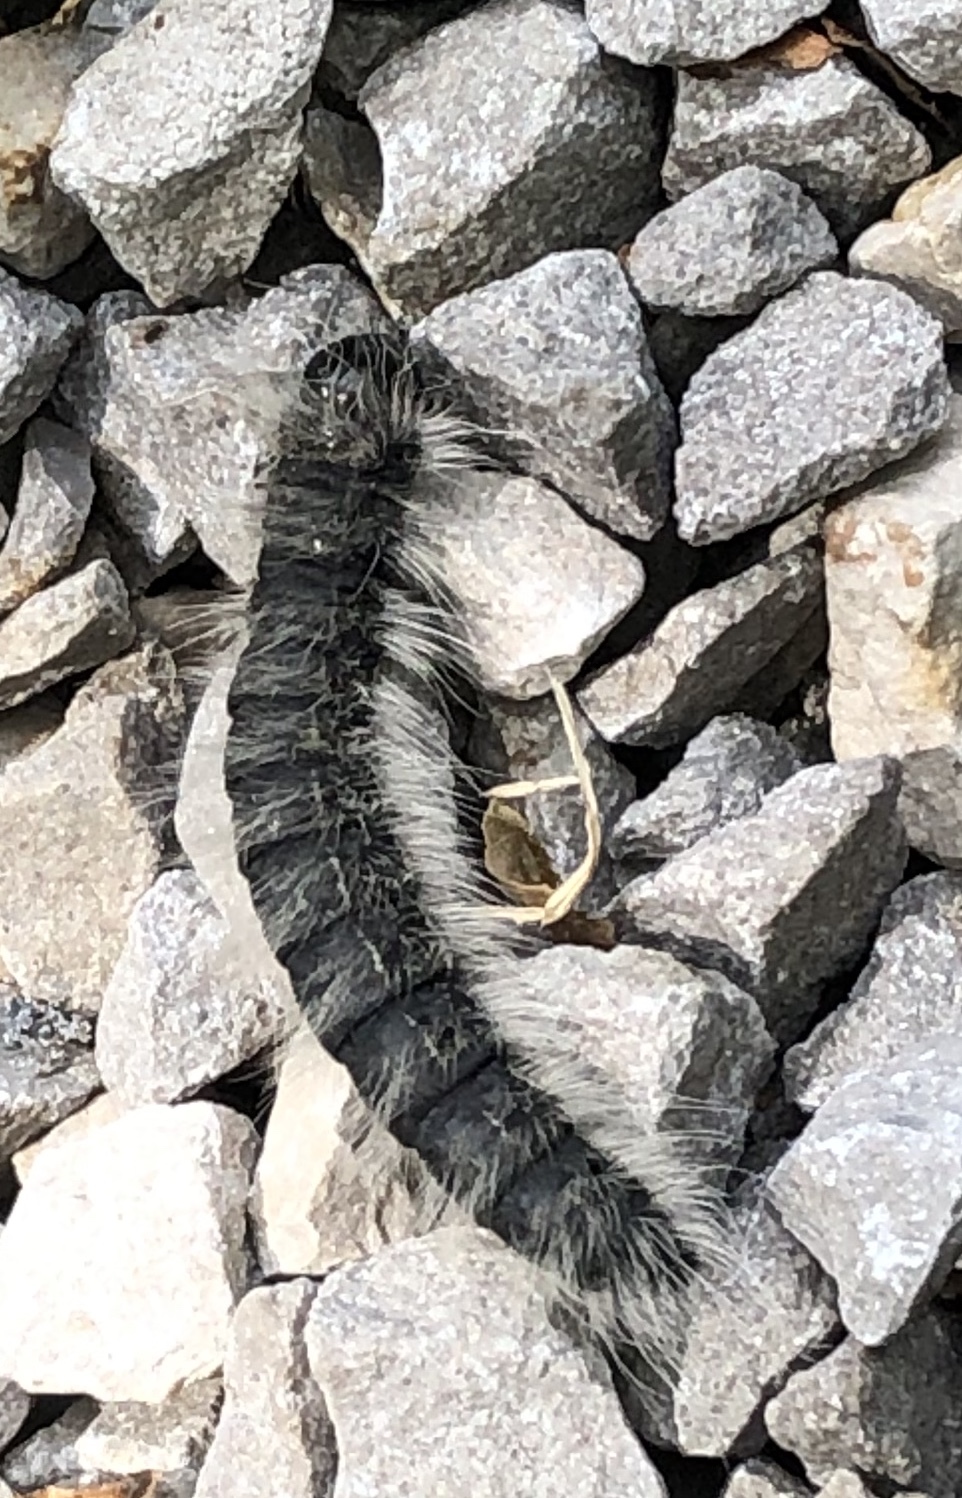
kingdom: Animalia
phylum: Arthropoda
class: Insecta
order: Lepidoptera
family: Notodontidae
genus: Datana
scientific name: Datana integerrima
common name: Walnut caterpillar
